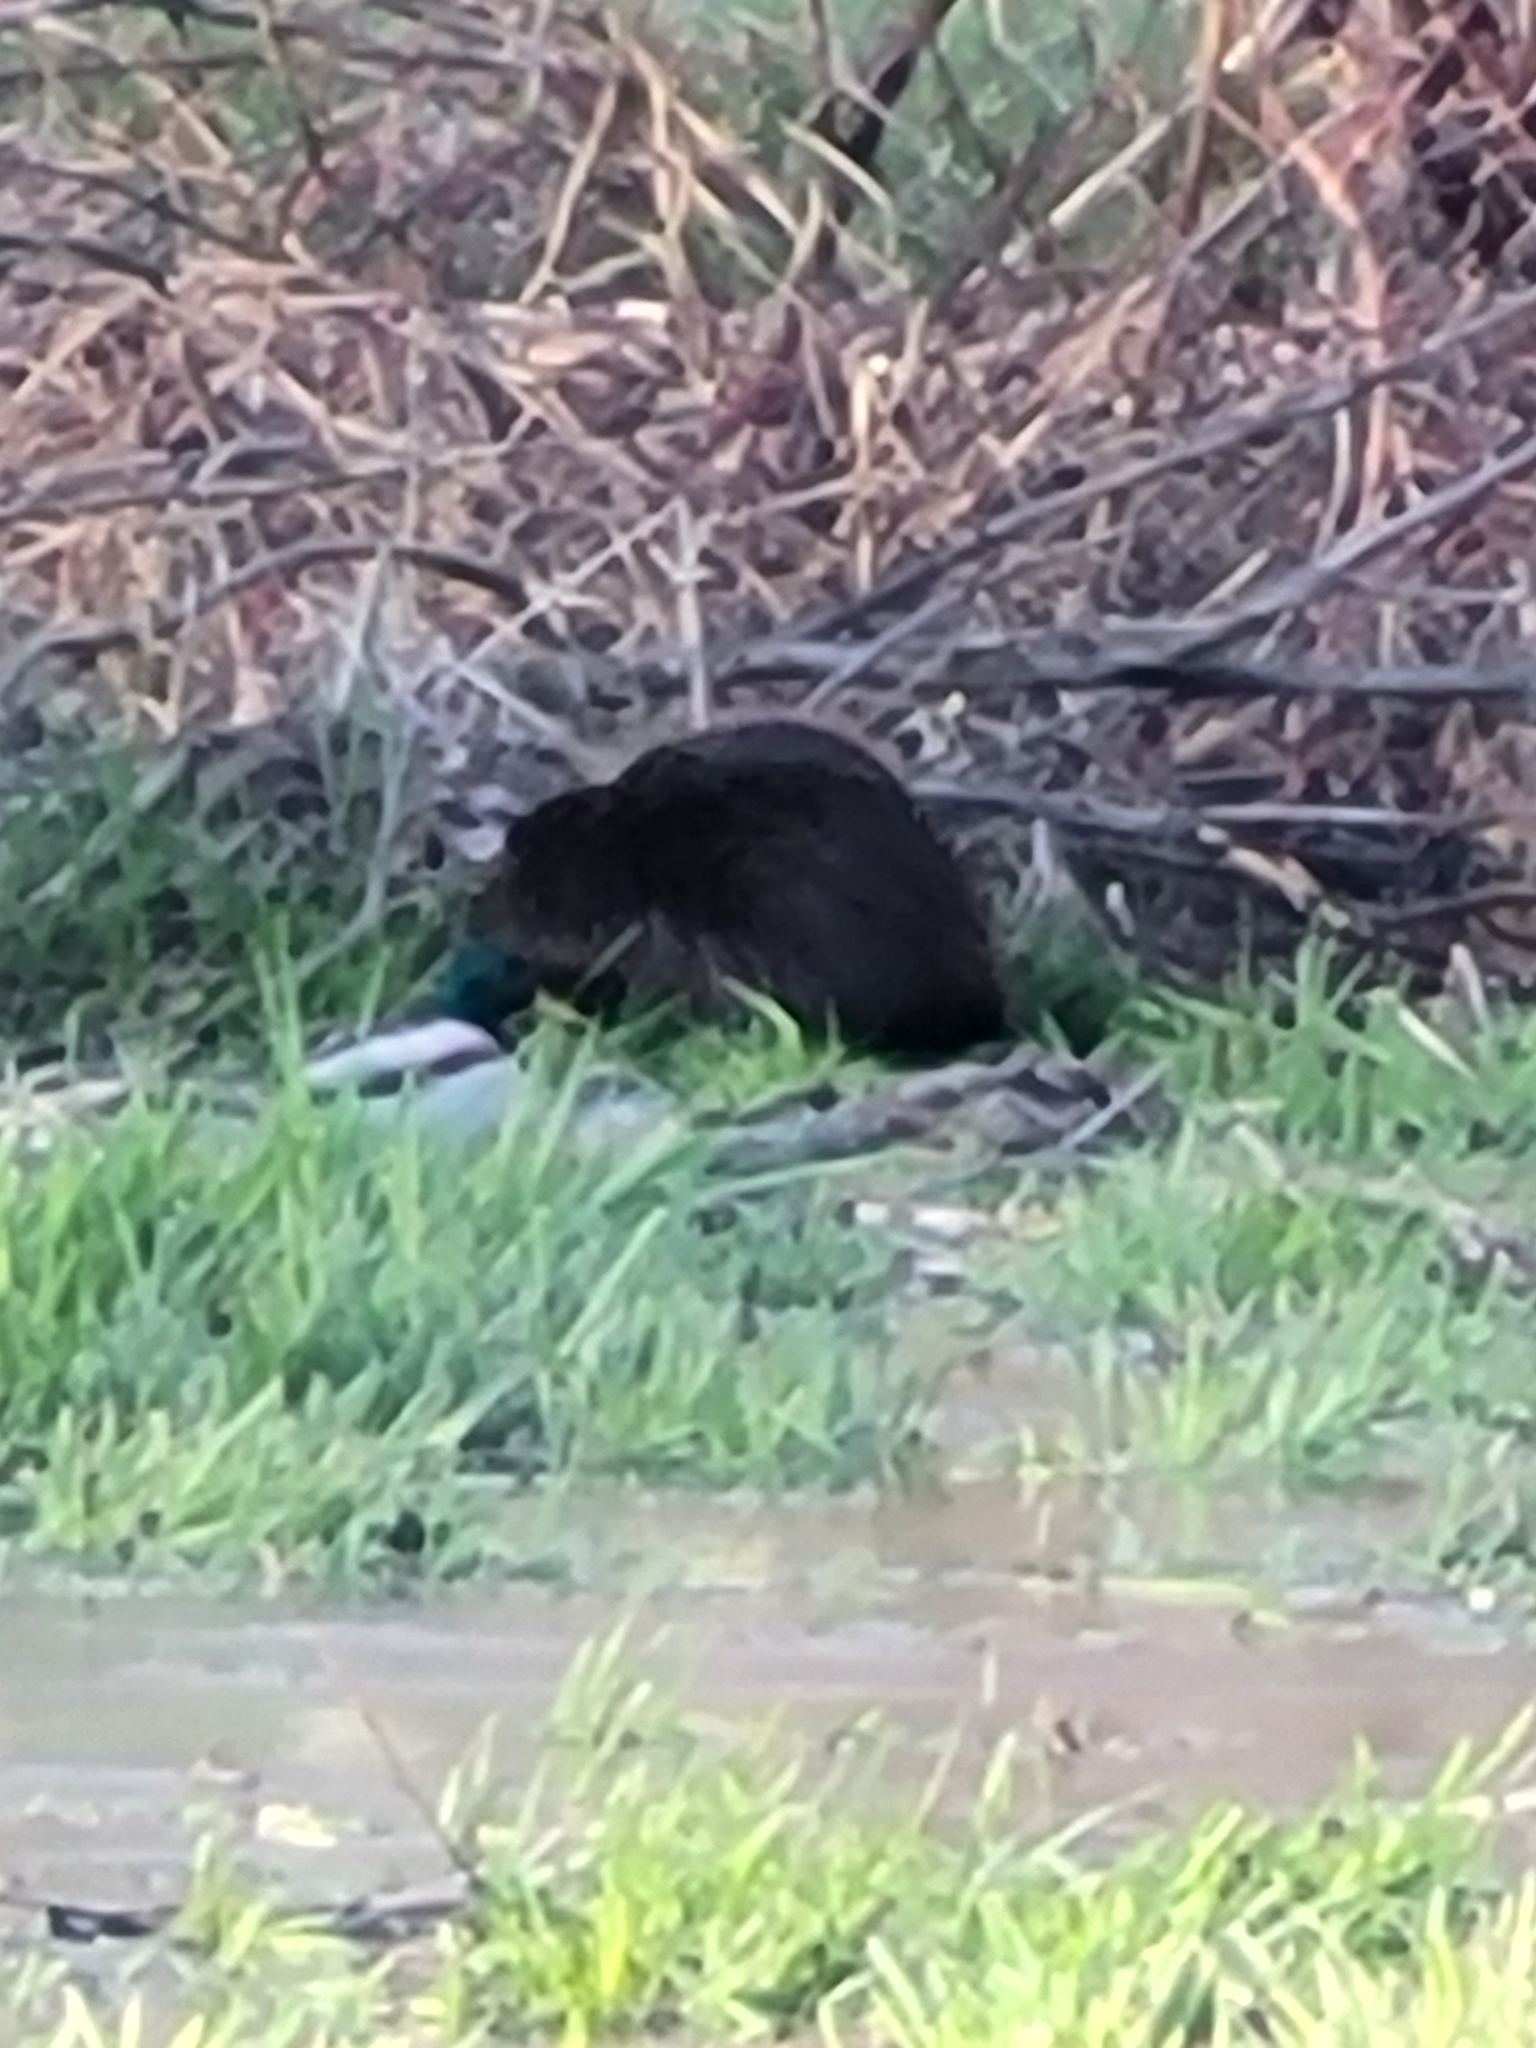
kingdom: Animalia
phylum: Chordata
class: Mammalia
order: Rodentia
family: Castoridae
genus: Castor
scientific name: Castor canadensis
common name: American beaver
